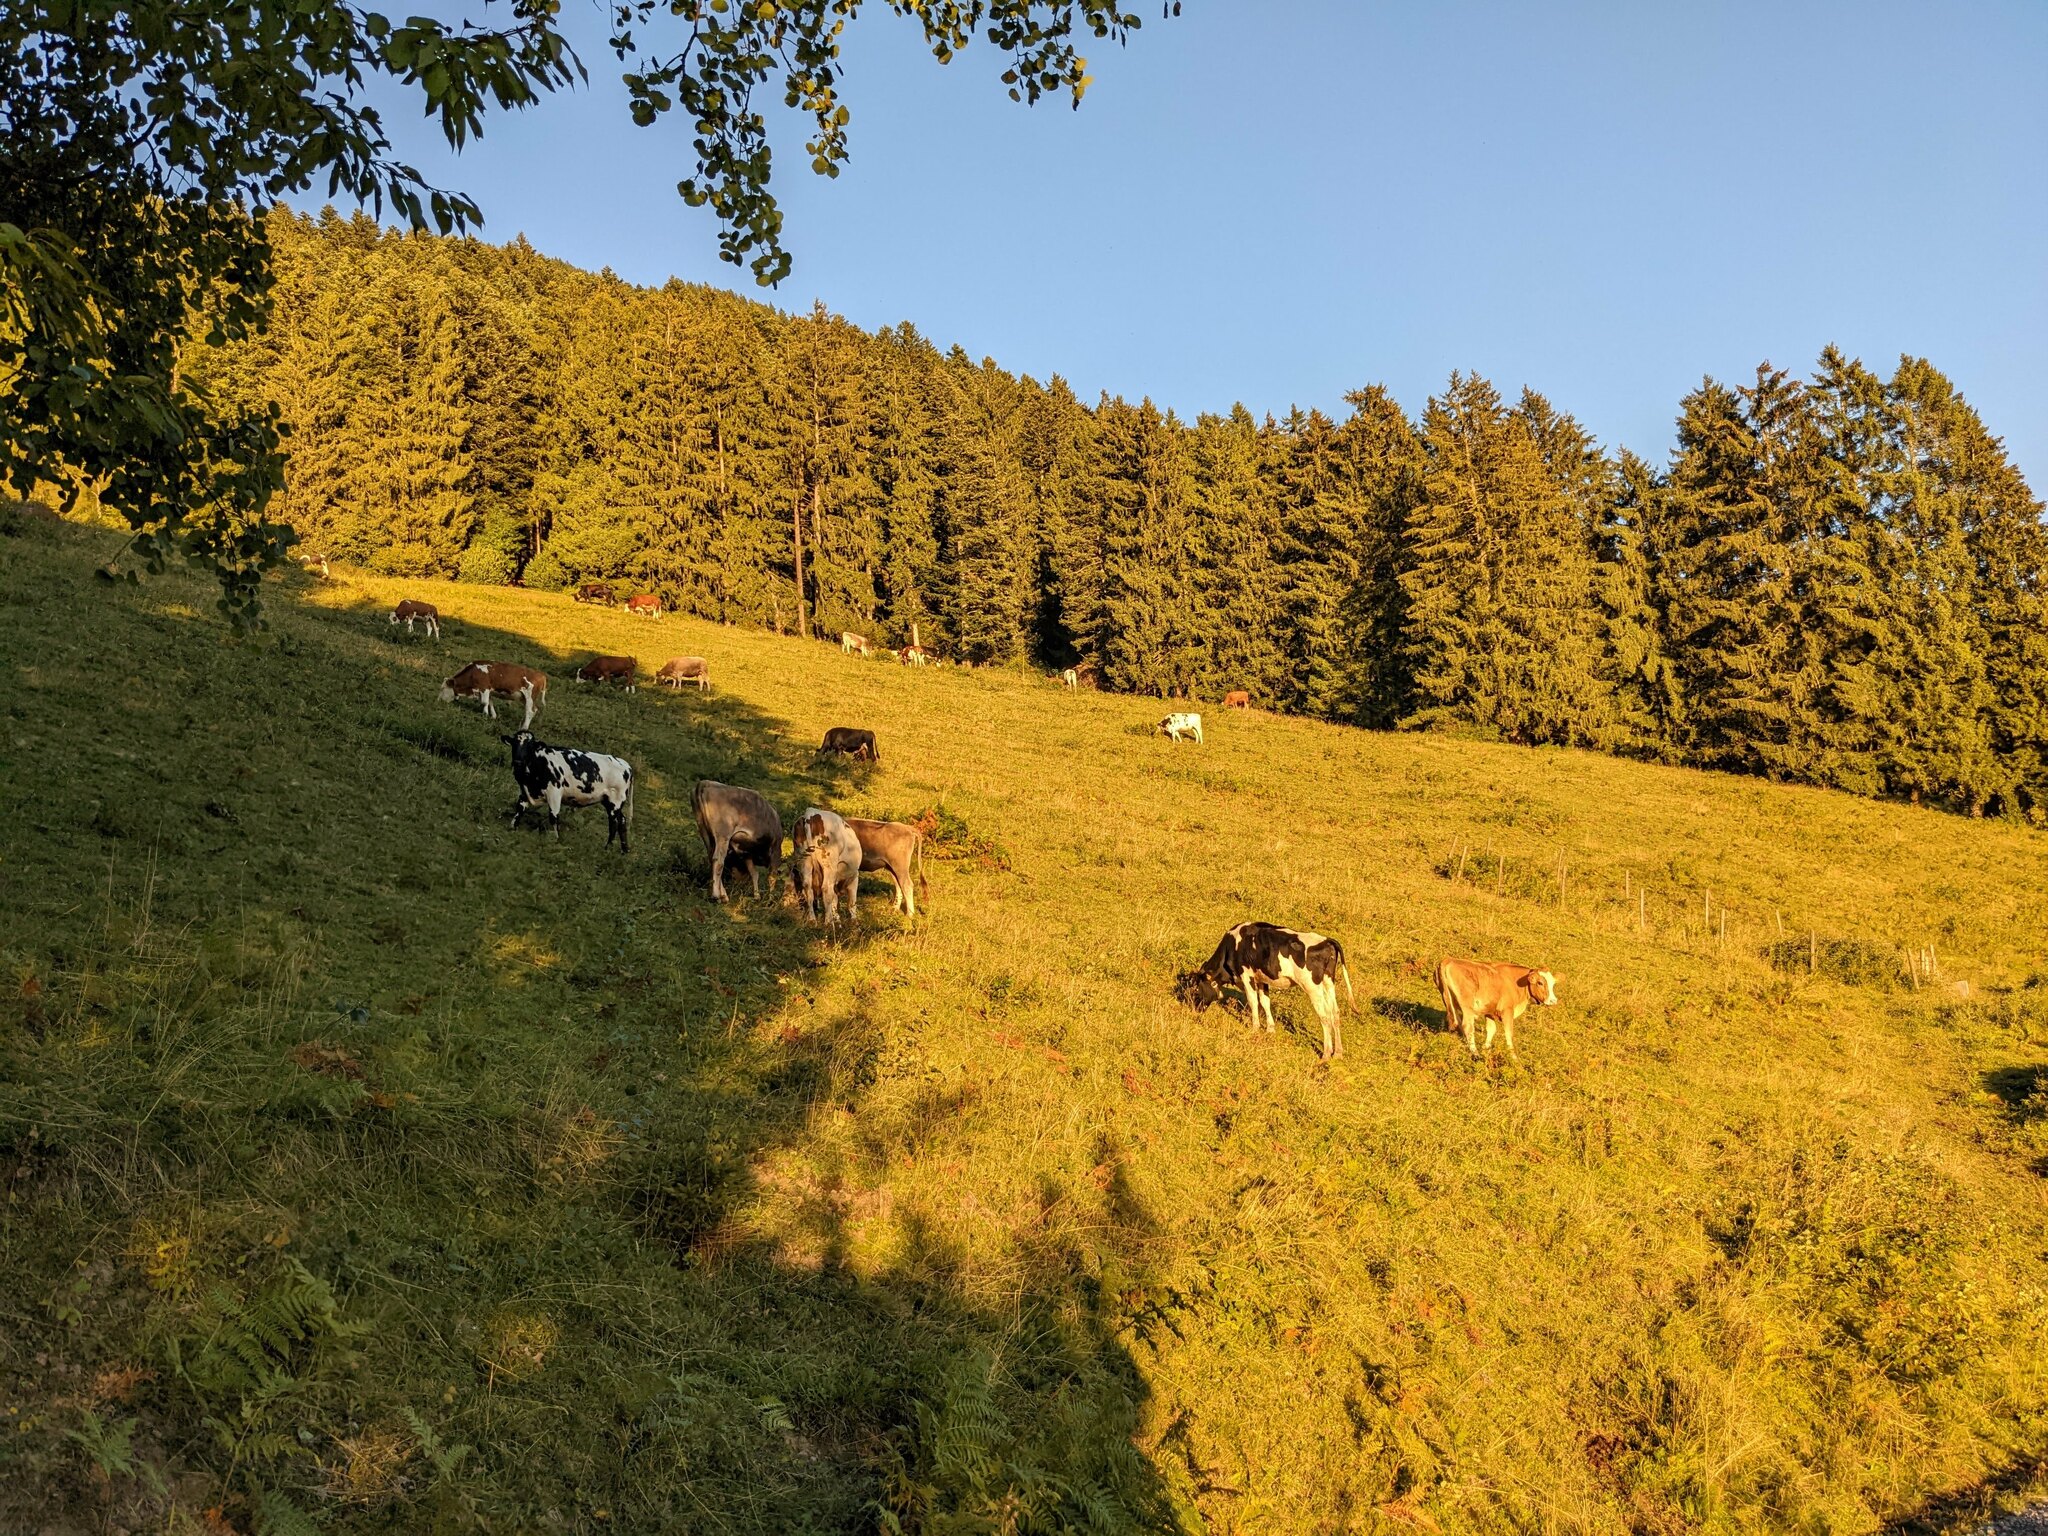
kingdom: Plantae
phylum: Tracheophyta
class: Pinopsida
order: Pinales
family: Pinaceae
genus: Picea
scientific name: Picea abies
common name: Norway spruce
